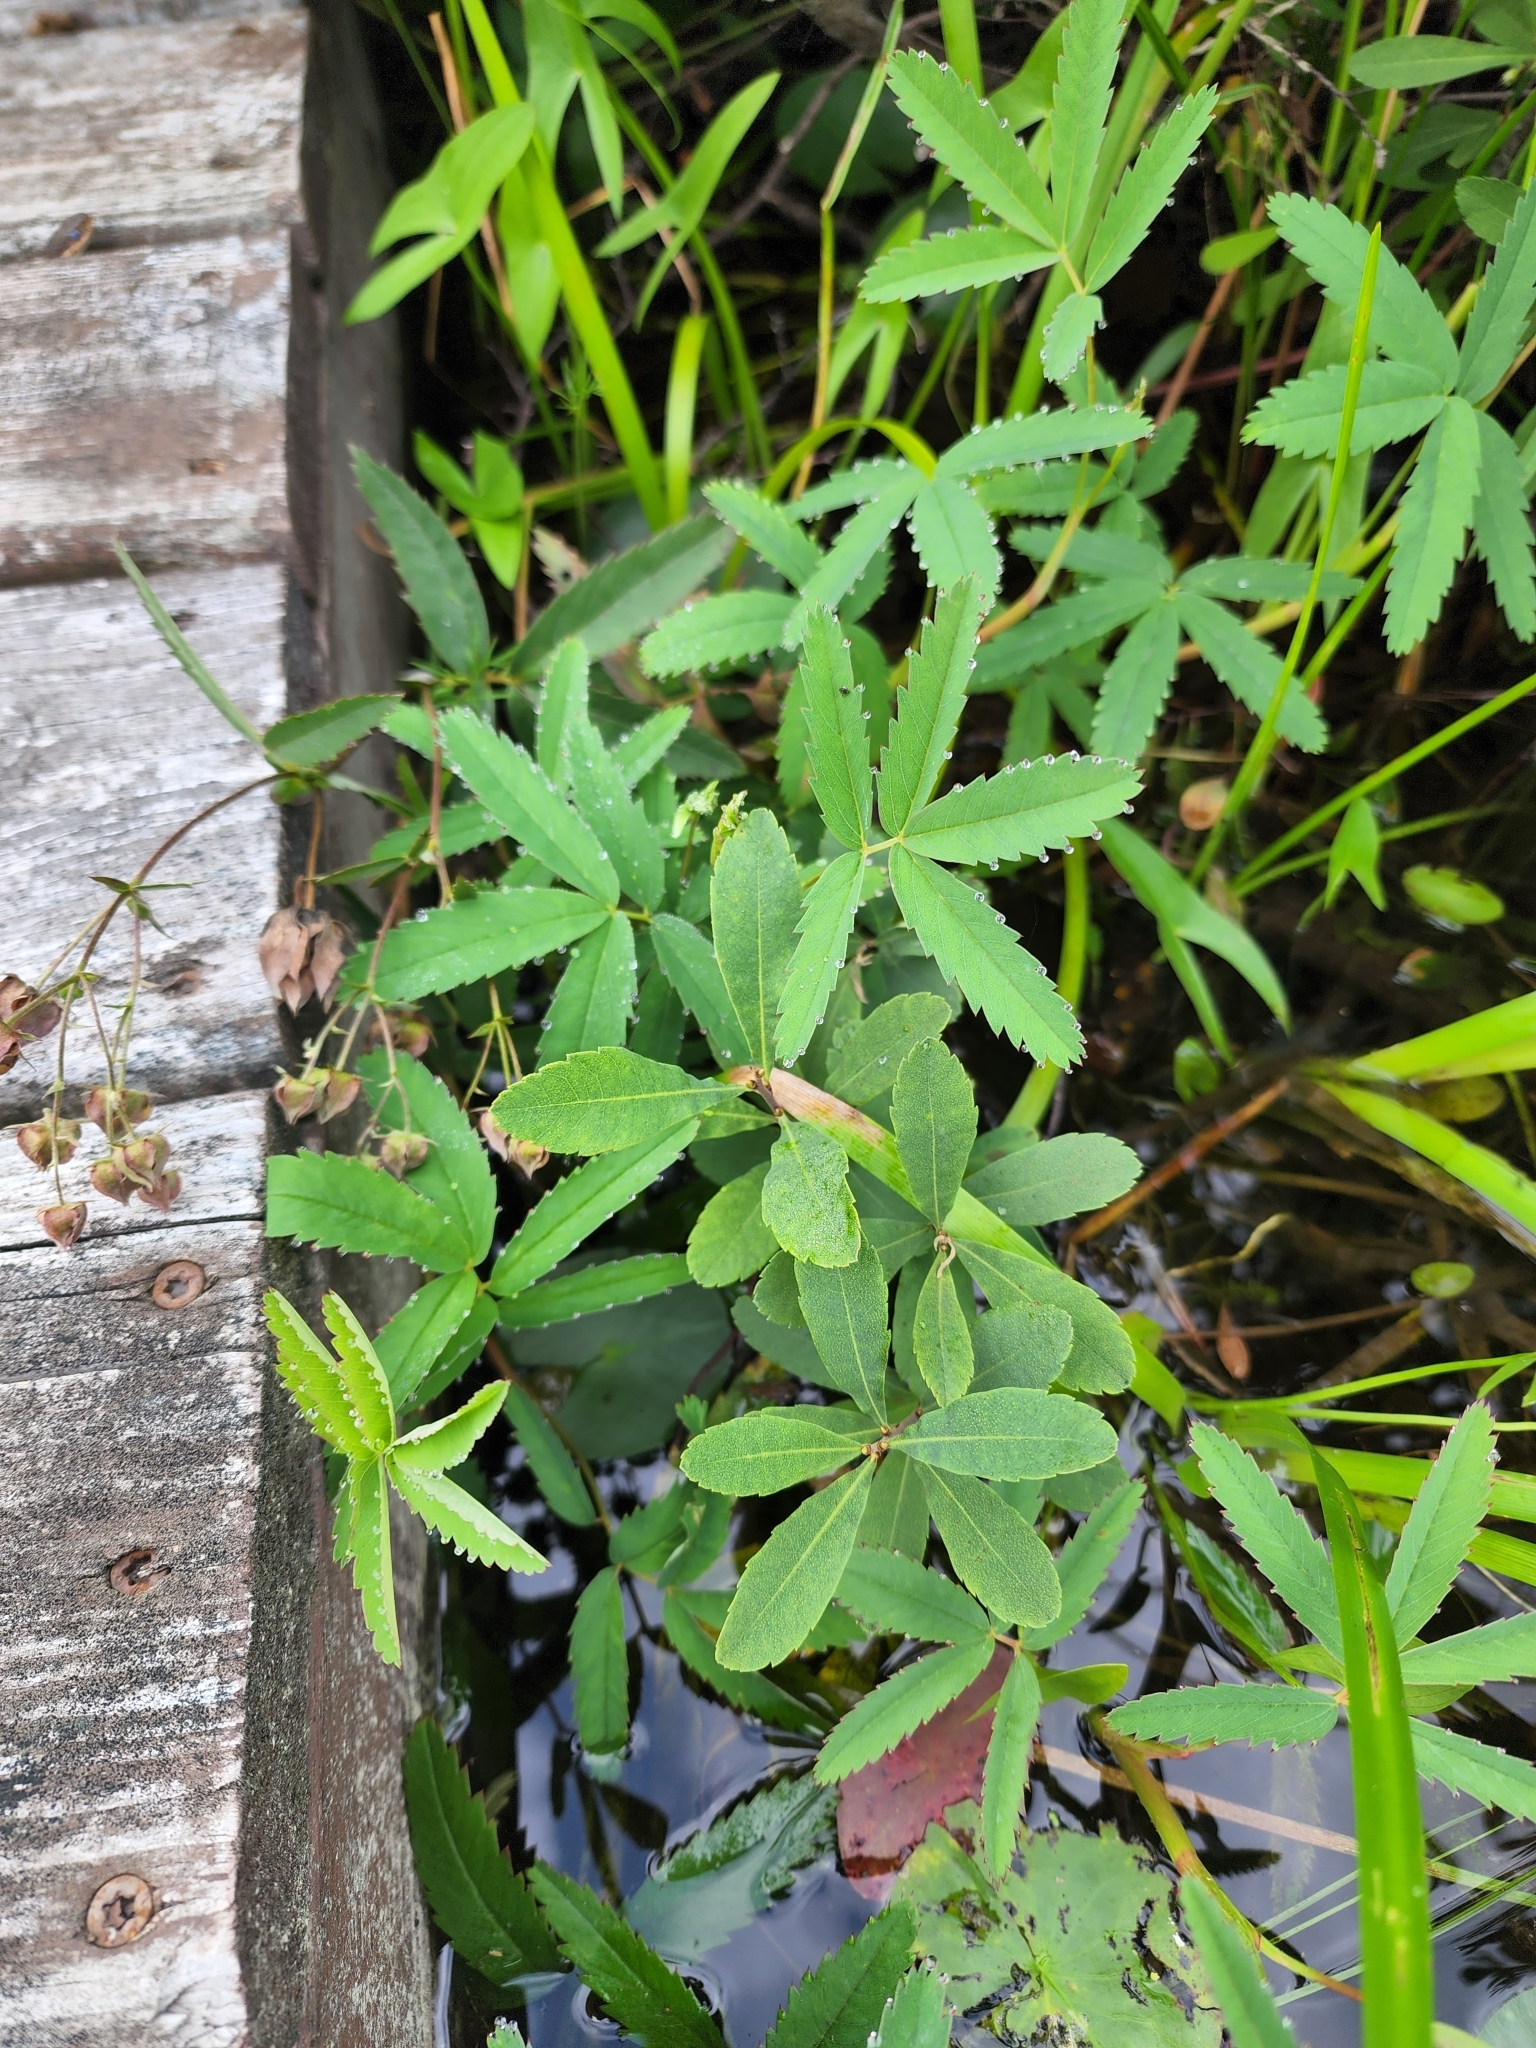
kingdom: Plantae
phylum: Tracheophyta
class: Magnoliopsida
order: Rosales
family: Rosaceae
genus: Comarum
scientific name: Comarum palustre
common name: Marsh cinquefoil
